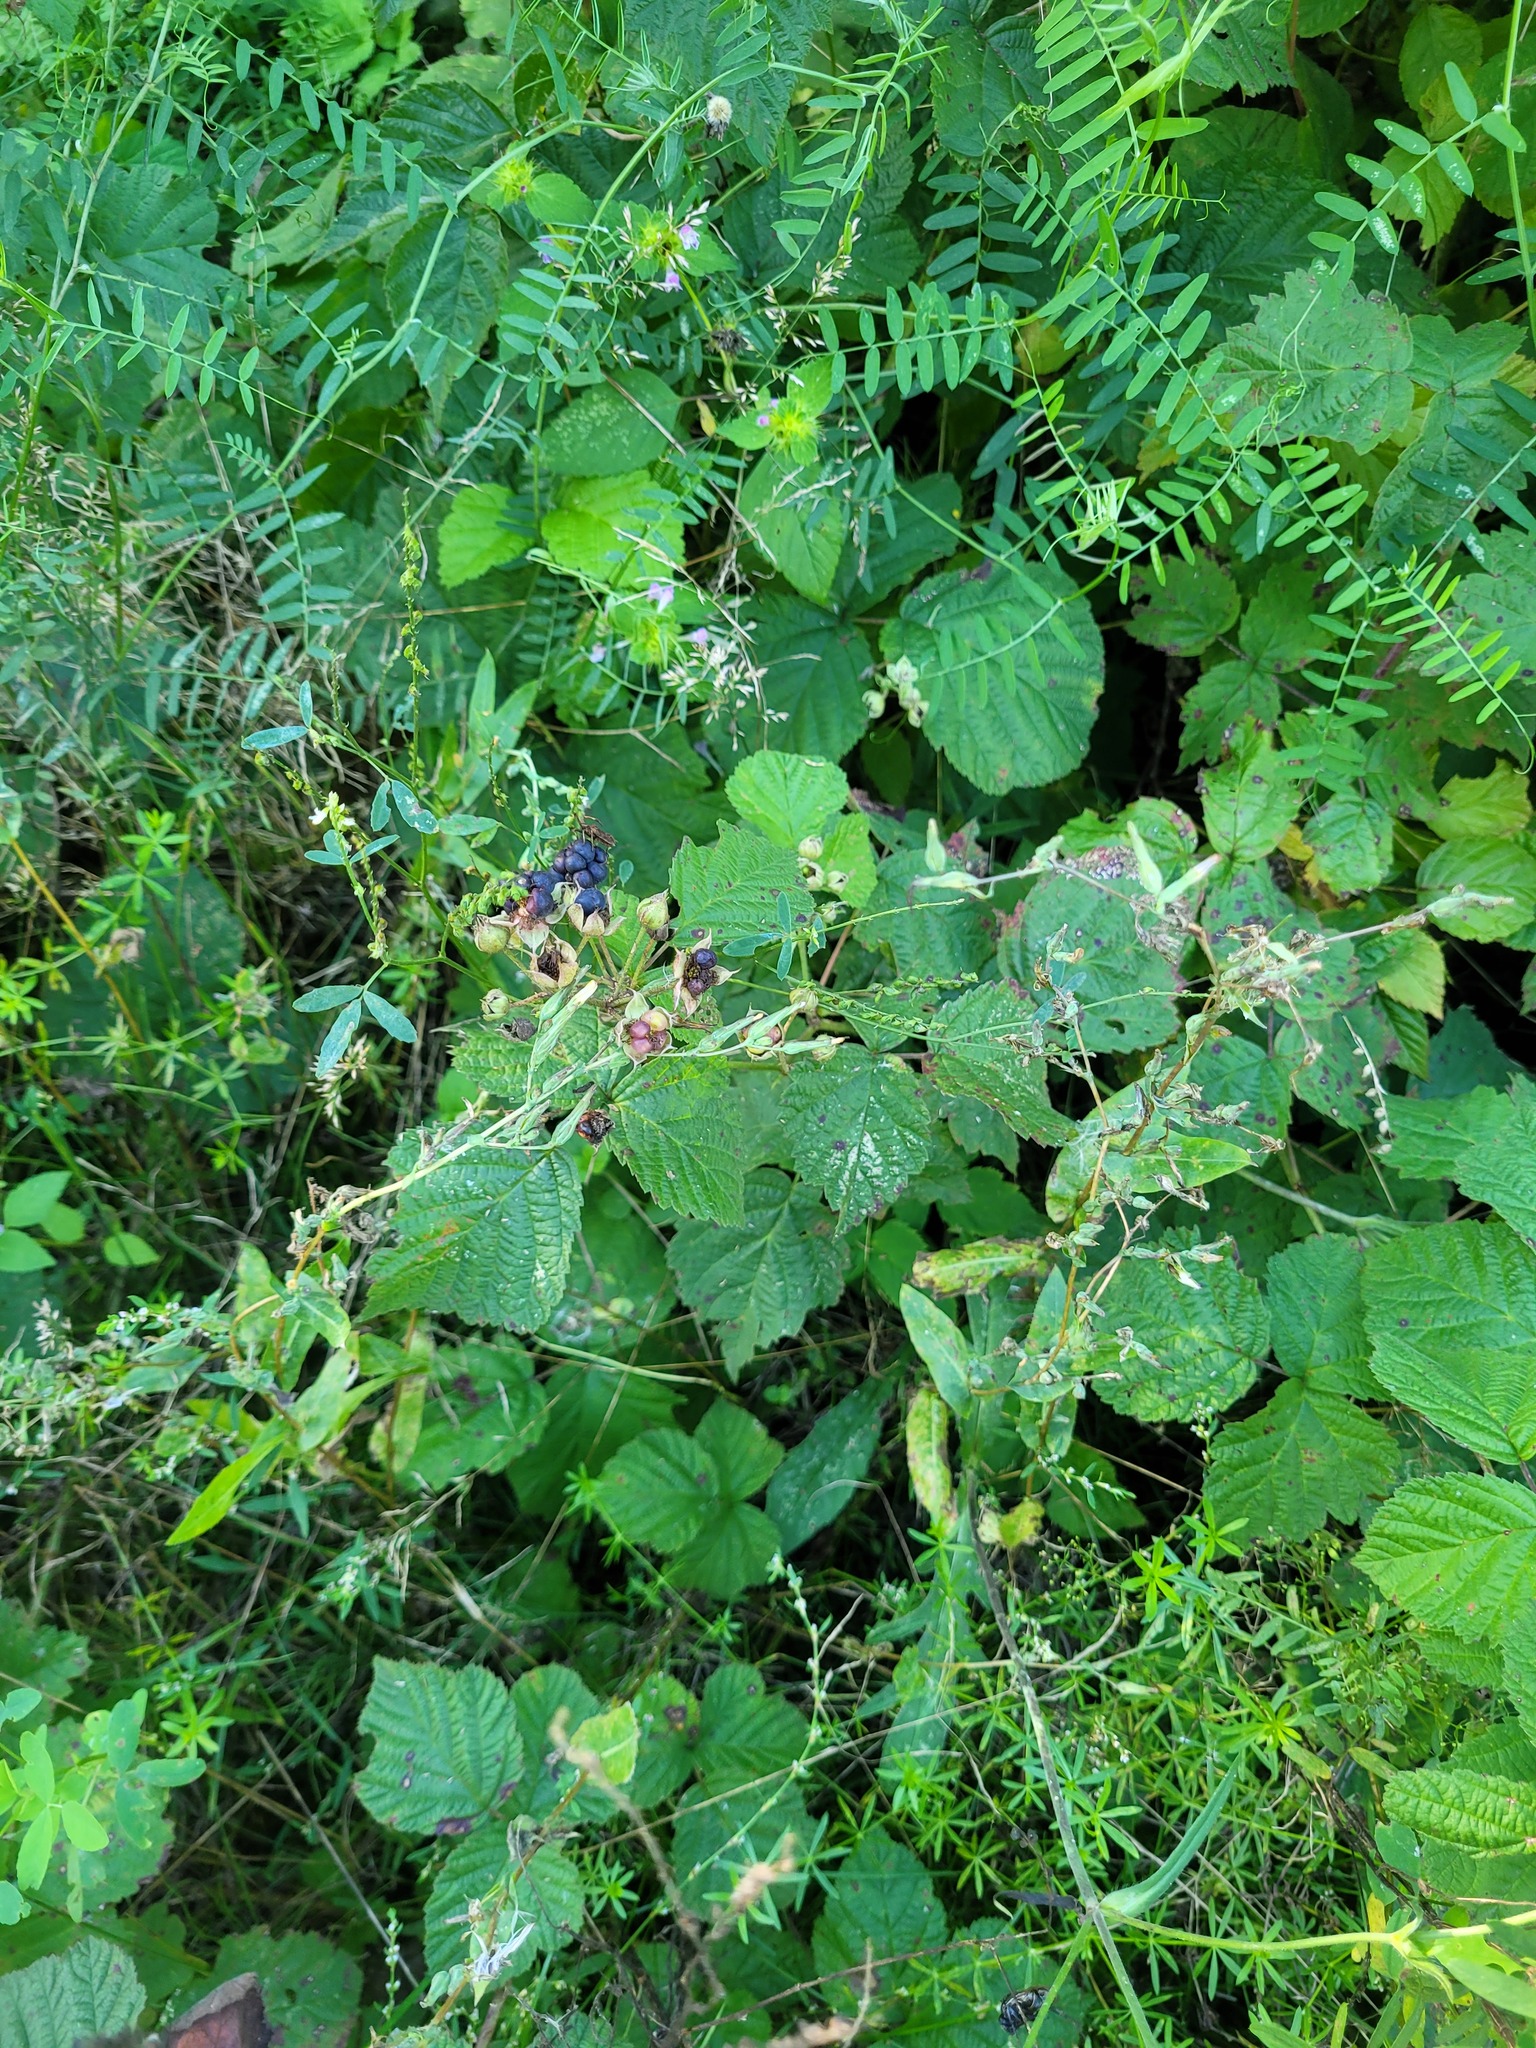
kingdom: Plantae
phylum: Tracheophyta
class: Magnoliopsida
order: Rosales
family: Rosaceae
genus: Rubus
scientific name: Rubus caesius
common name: Dewberry
